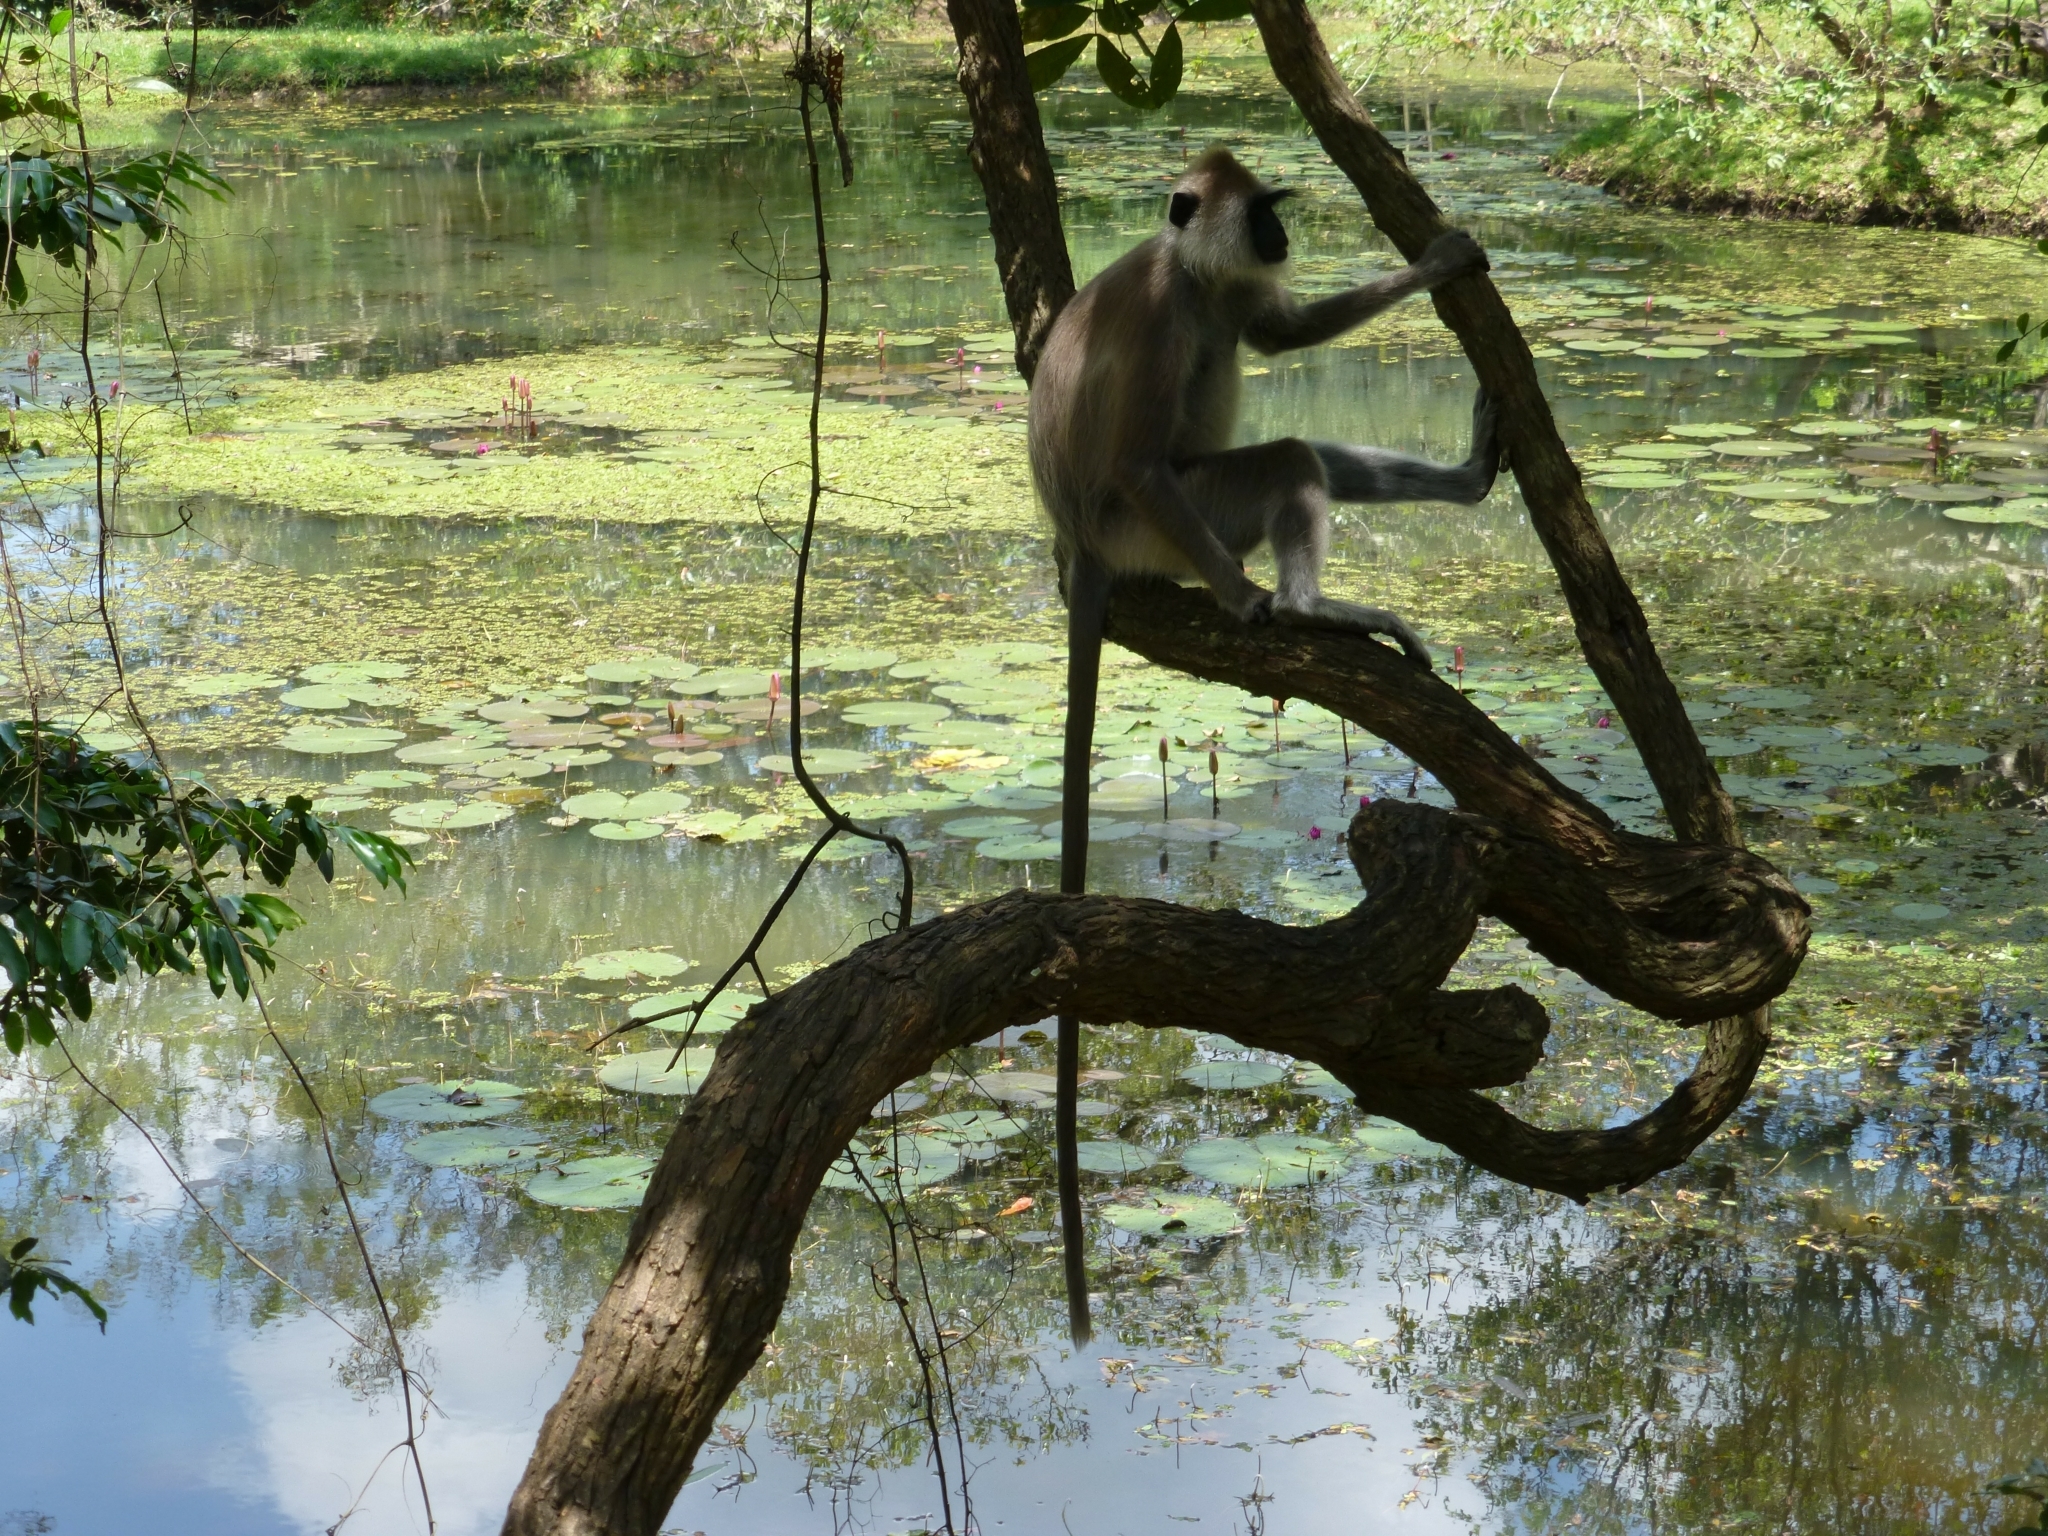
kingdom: Animalia
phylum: Chordata
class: Mammalia
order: Primates
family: Cercopithecidae
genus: Semnopithecus
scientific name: Semnopithecus priam
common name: Tufted gray langur
